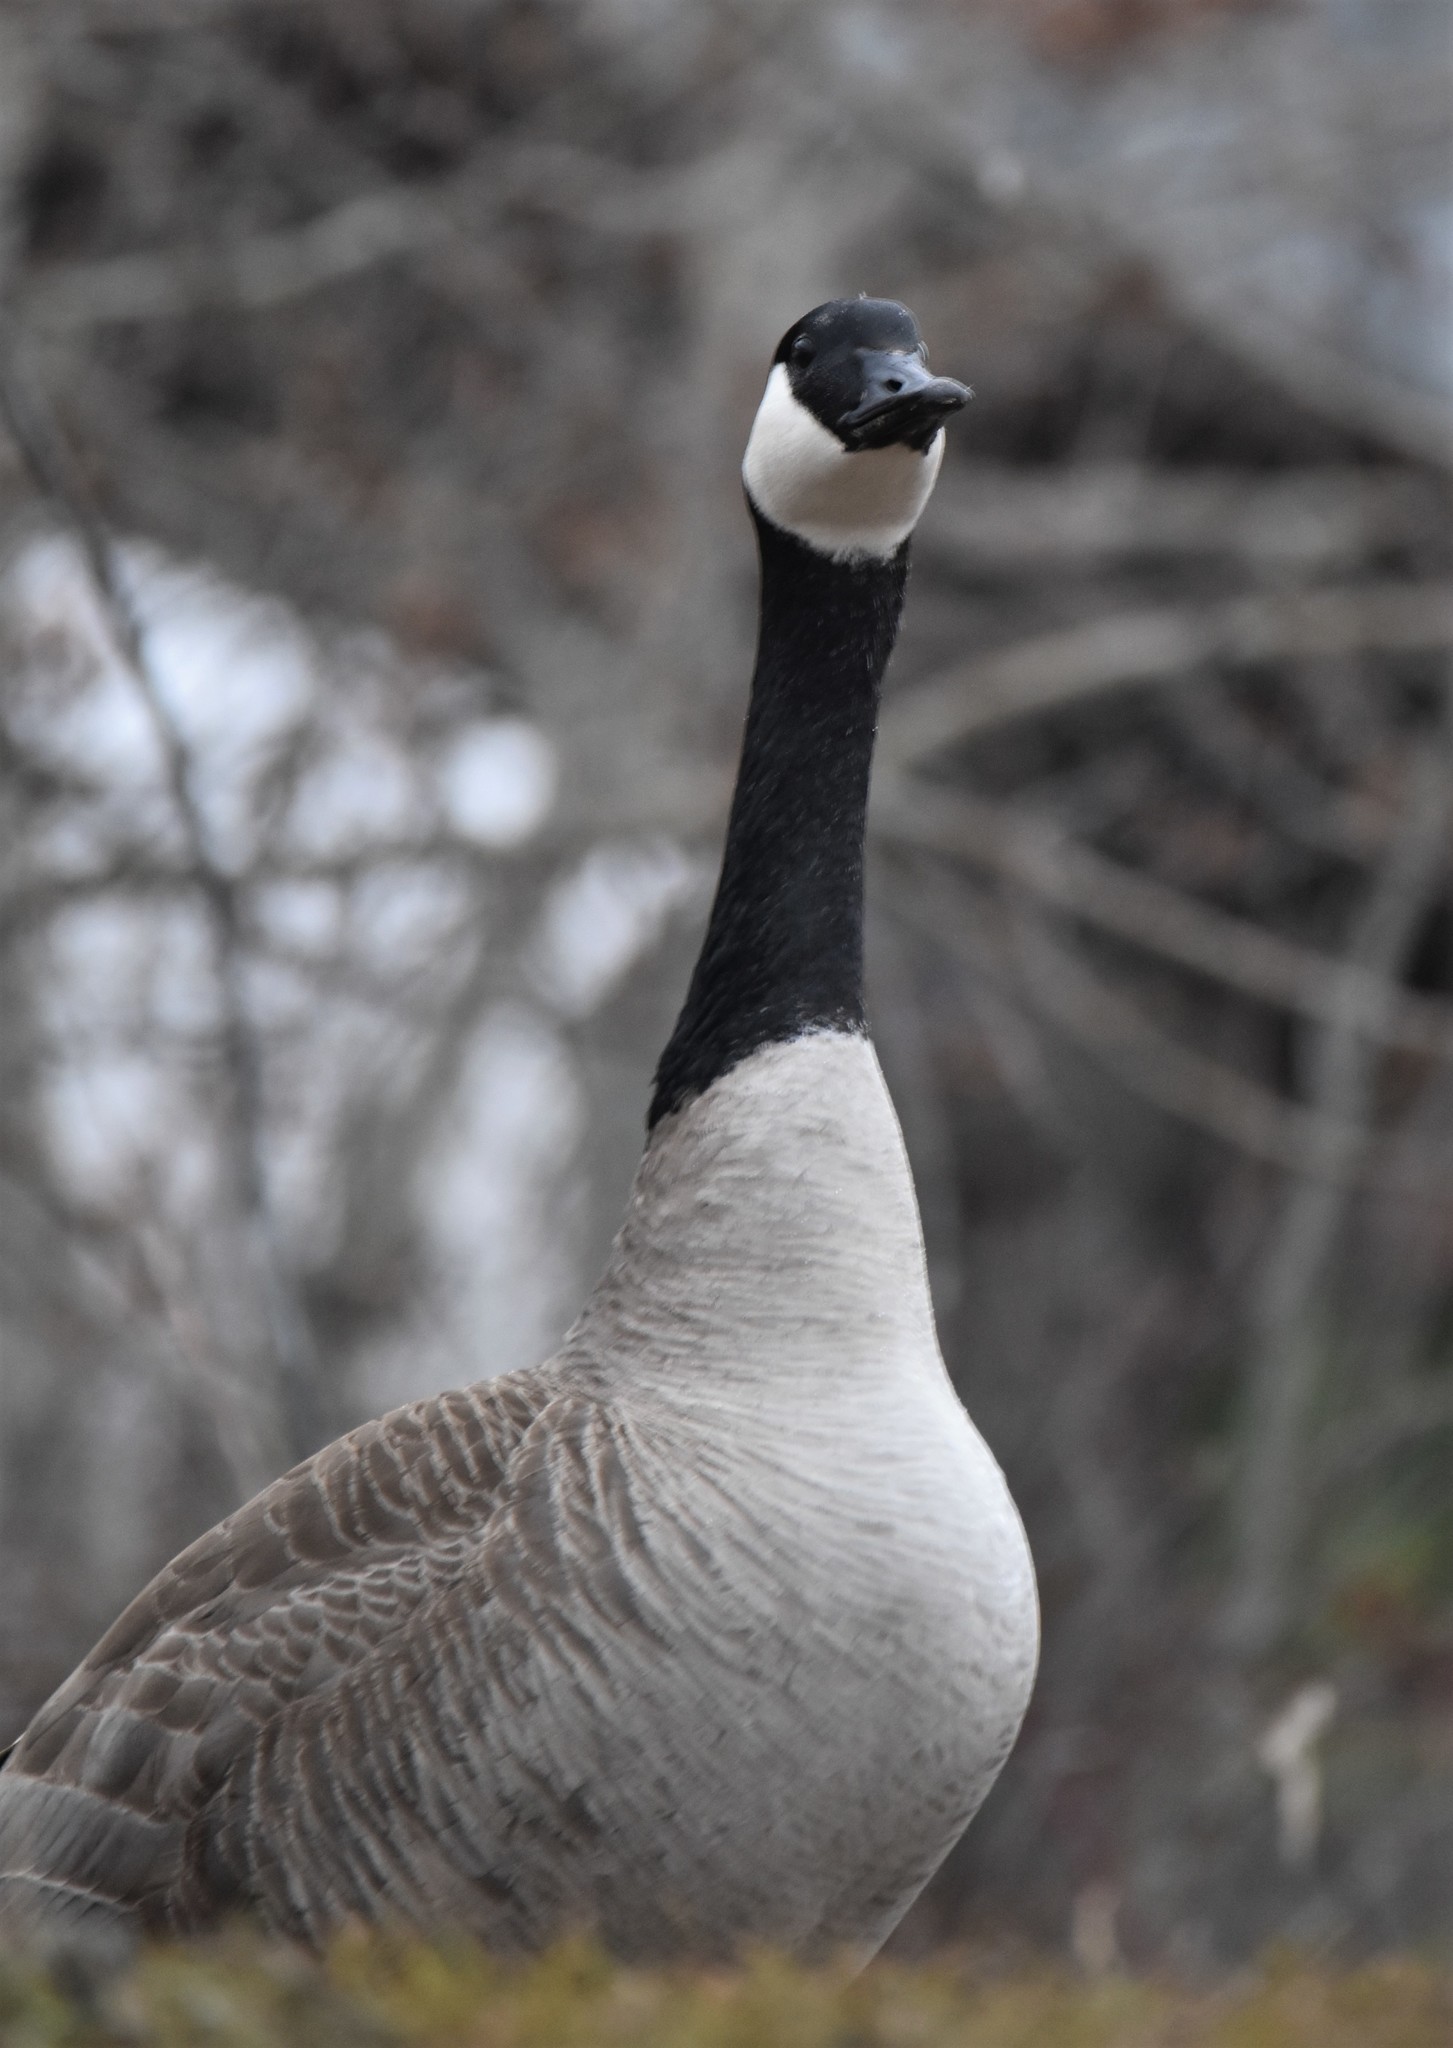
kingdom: Animalia
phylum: Chordata
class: Aves
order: Anseriformes
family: Anatidae
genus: Branta
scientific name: Branta canadensis
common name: Canada goose
